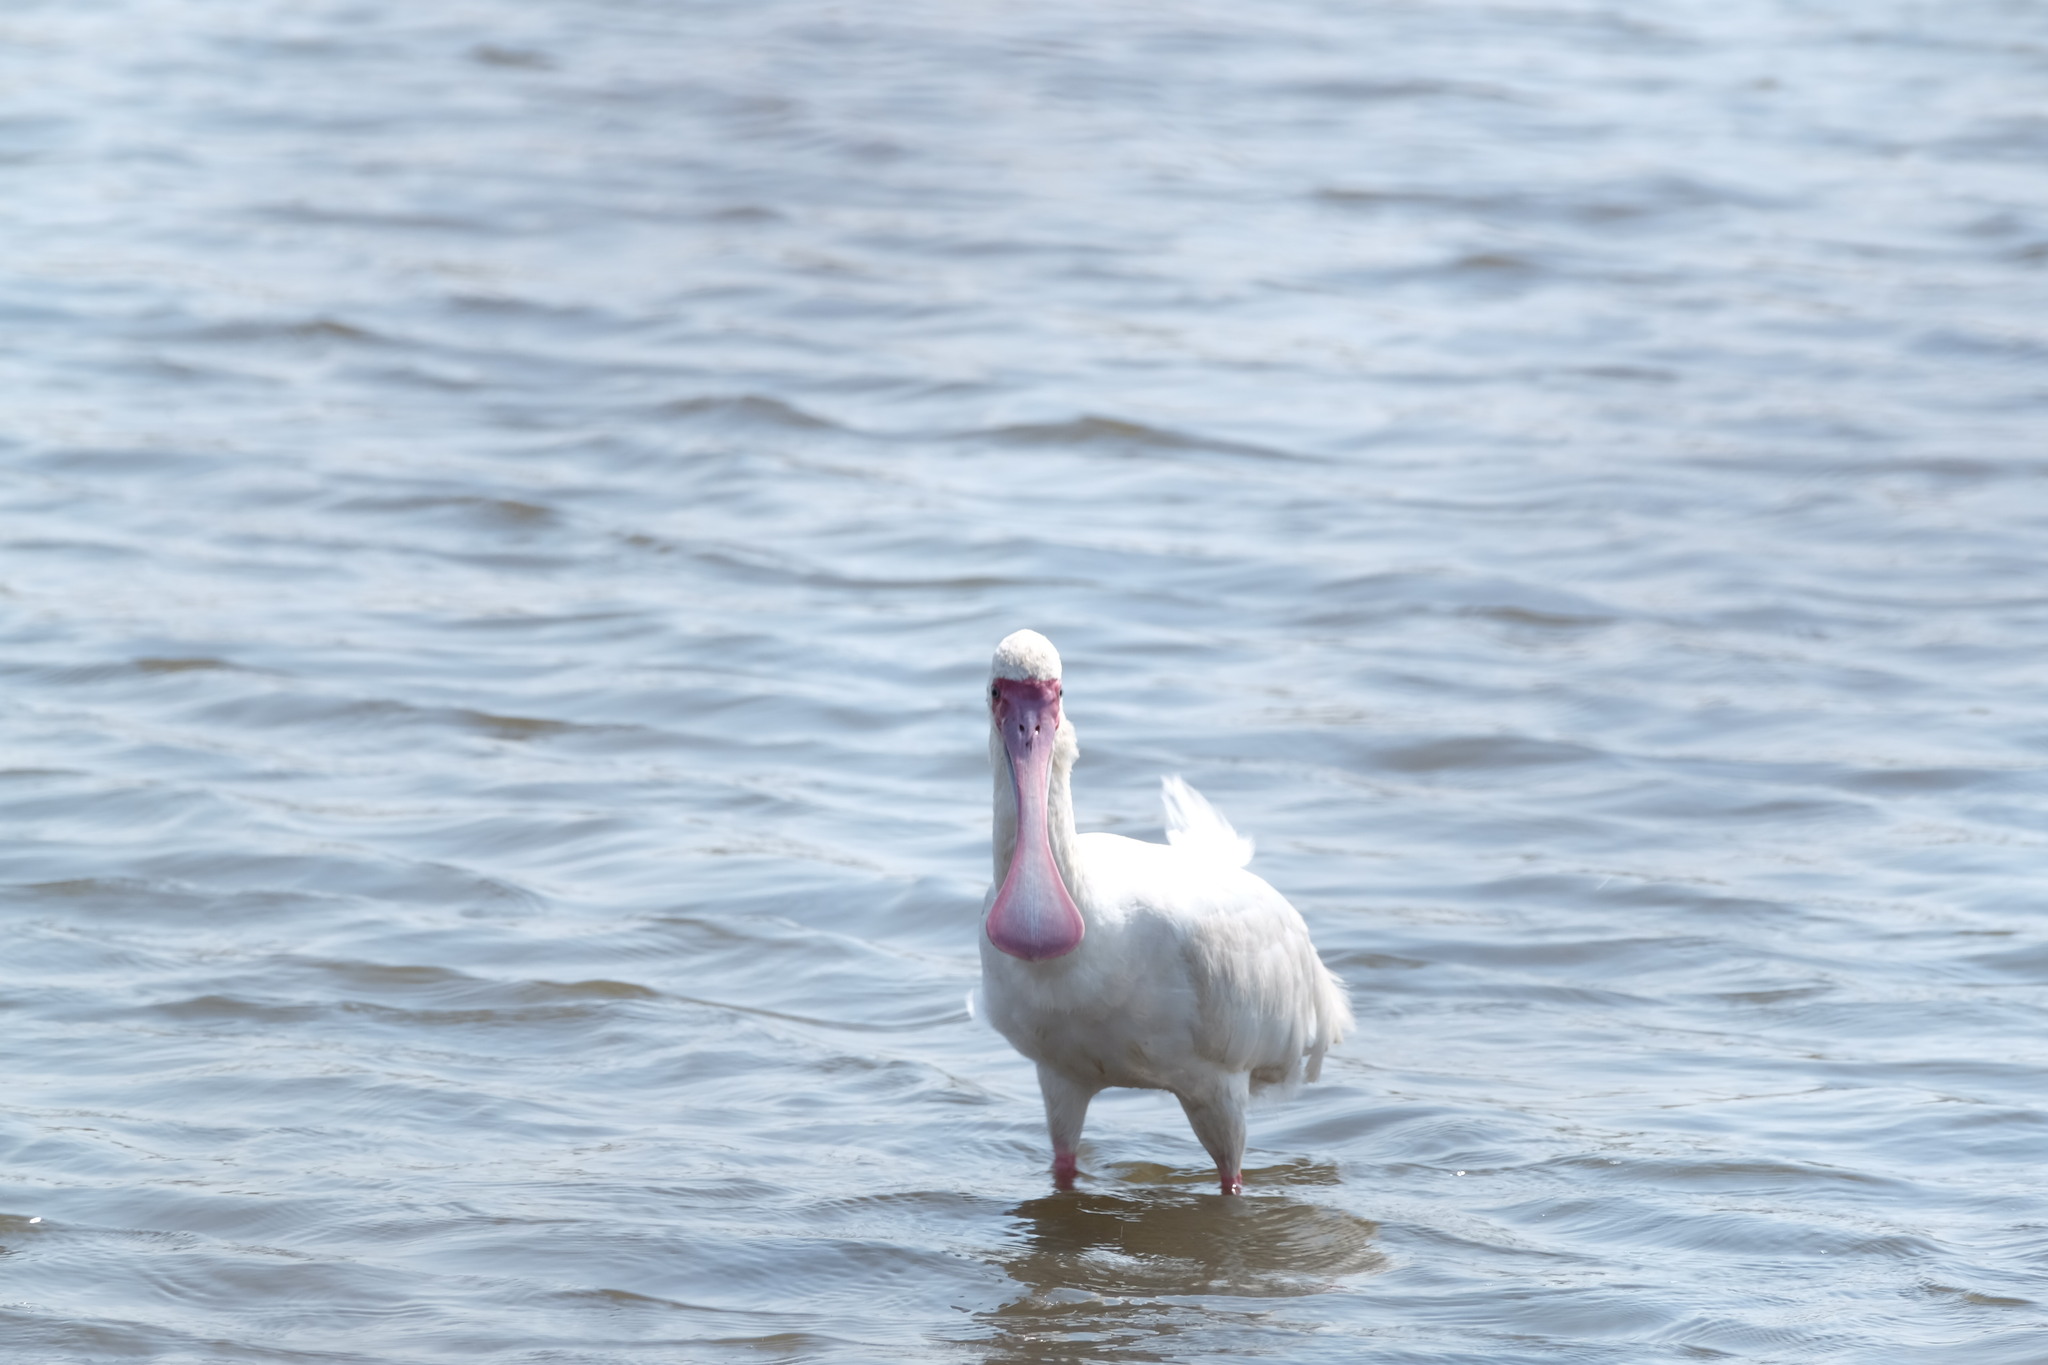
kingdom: Animalia
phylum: Chordata
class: Aves
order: Pelecaniformes
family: Threskiornithidae
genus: Platalea
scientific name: Platalea alba
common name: African spoonbill
